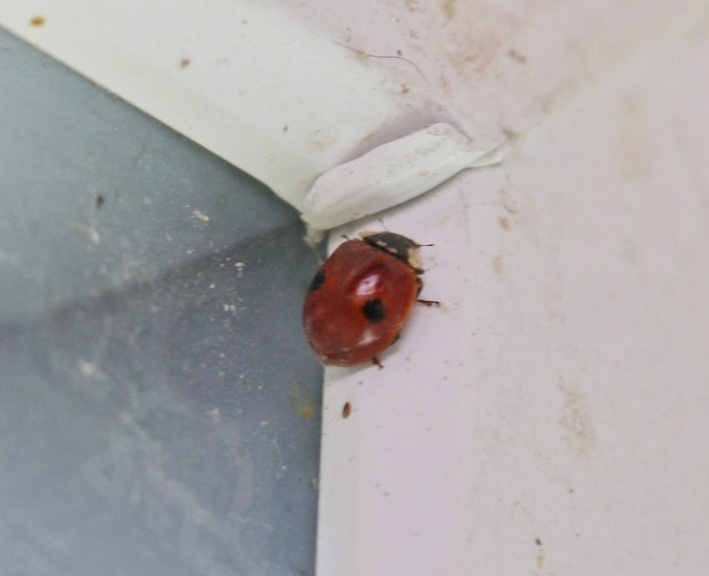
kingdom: Animalia
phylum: Arthropoda
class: Insecta
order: Coleoptera
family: Coccinellidae
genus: Adalia
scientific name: Adalia bipunctata
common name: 2-spot ladybird
